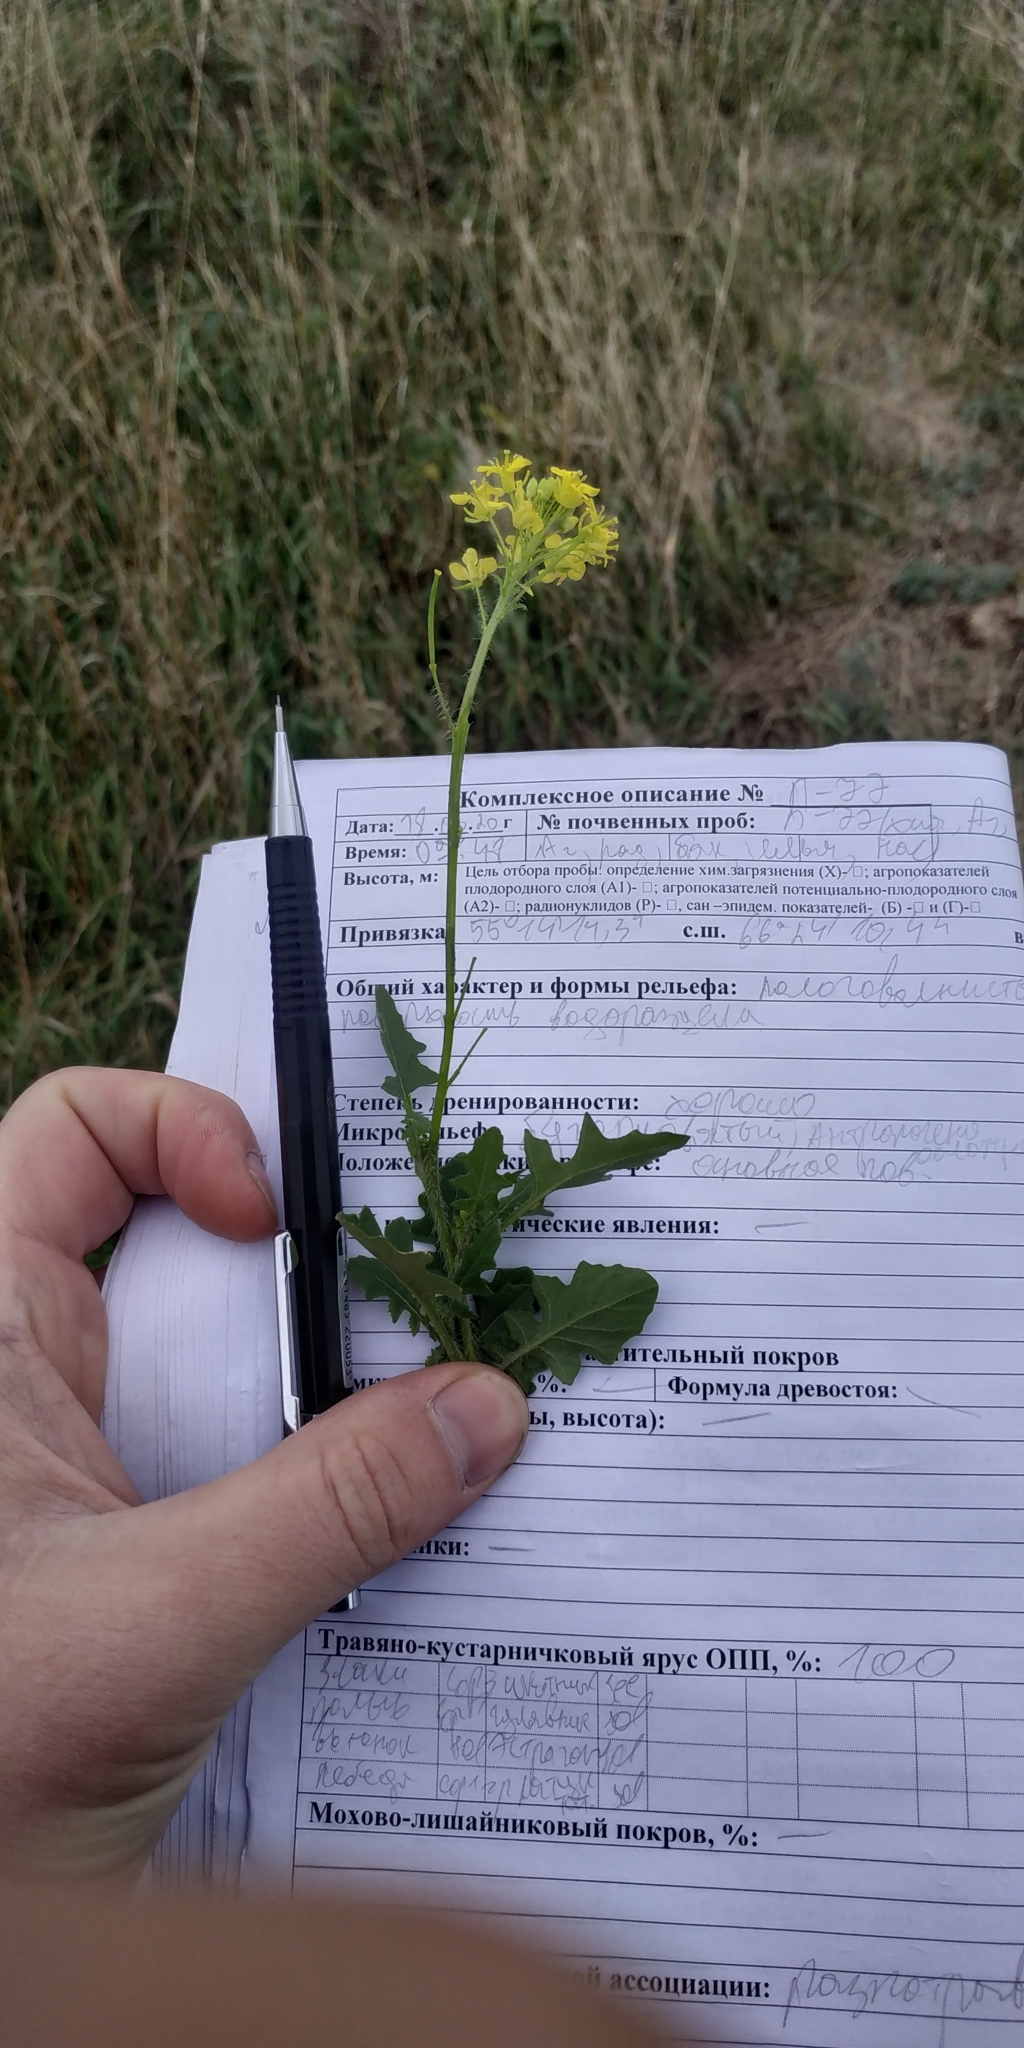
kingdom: Plantae
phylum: Tracheophyta
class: Magnoliopsida
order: Brassicales
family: Brassicaceae
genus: Sisymbrium
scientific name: Sisymbrium loeselii
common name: False london-rocket
